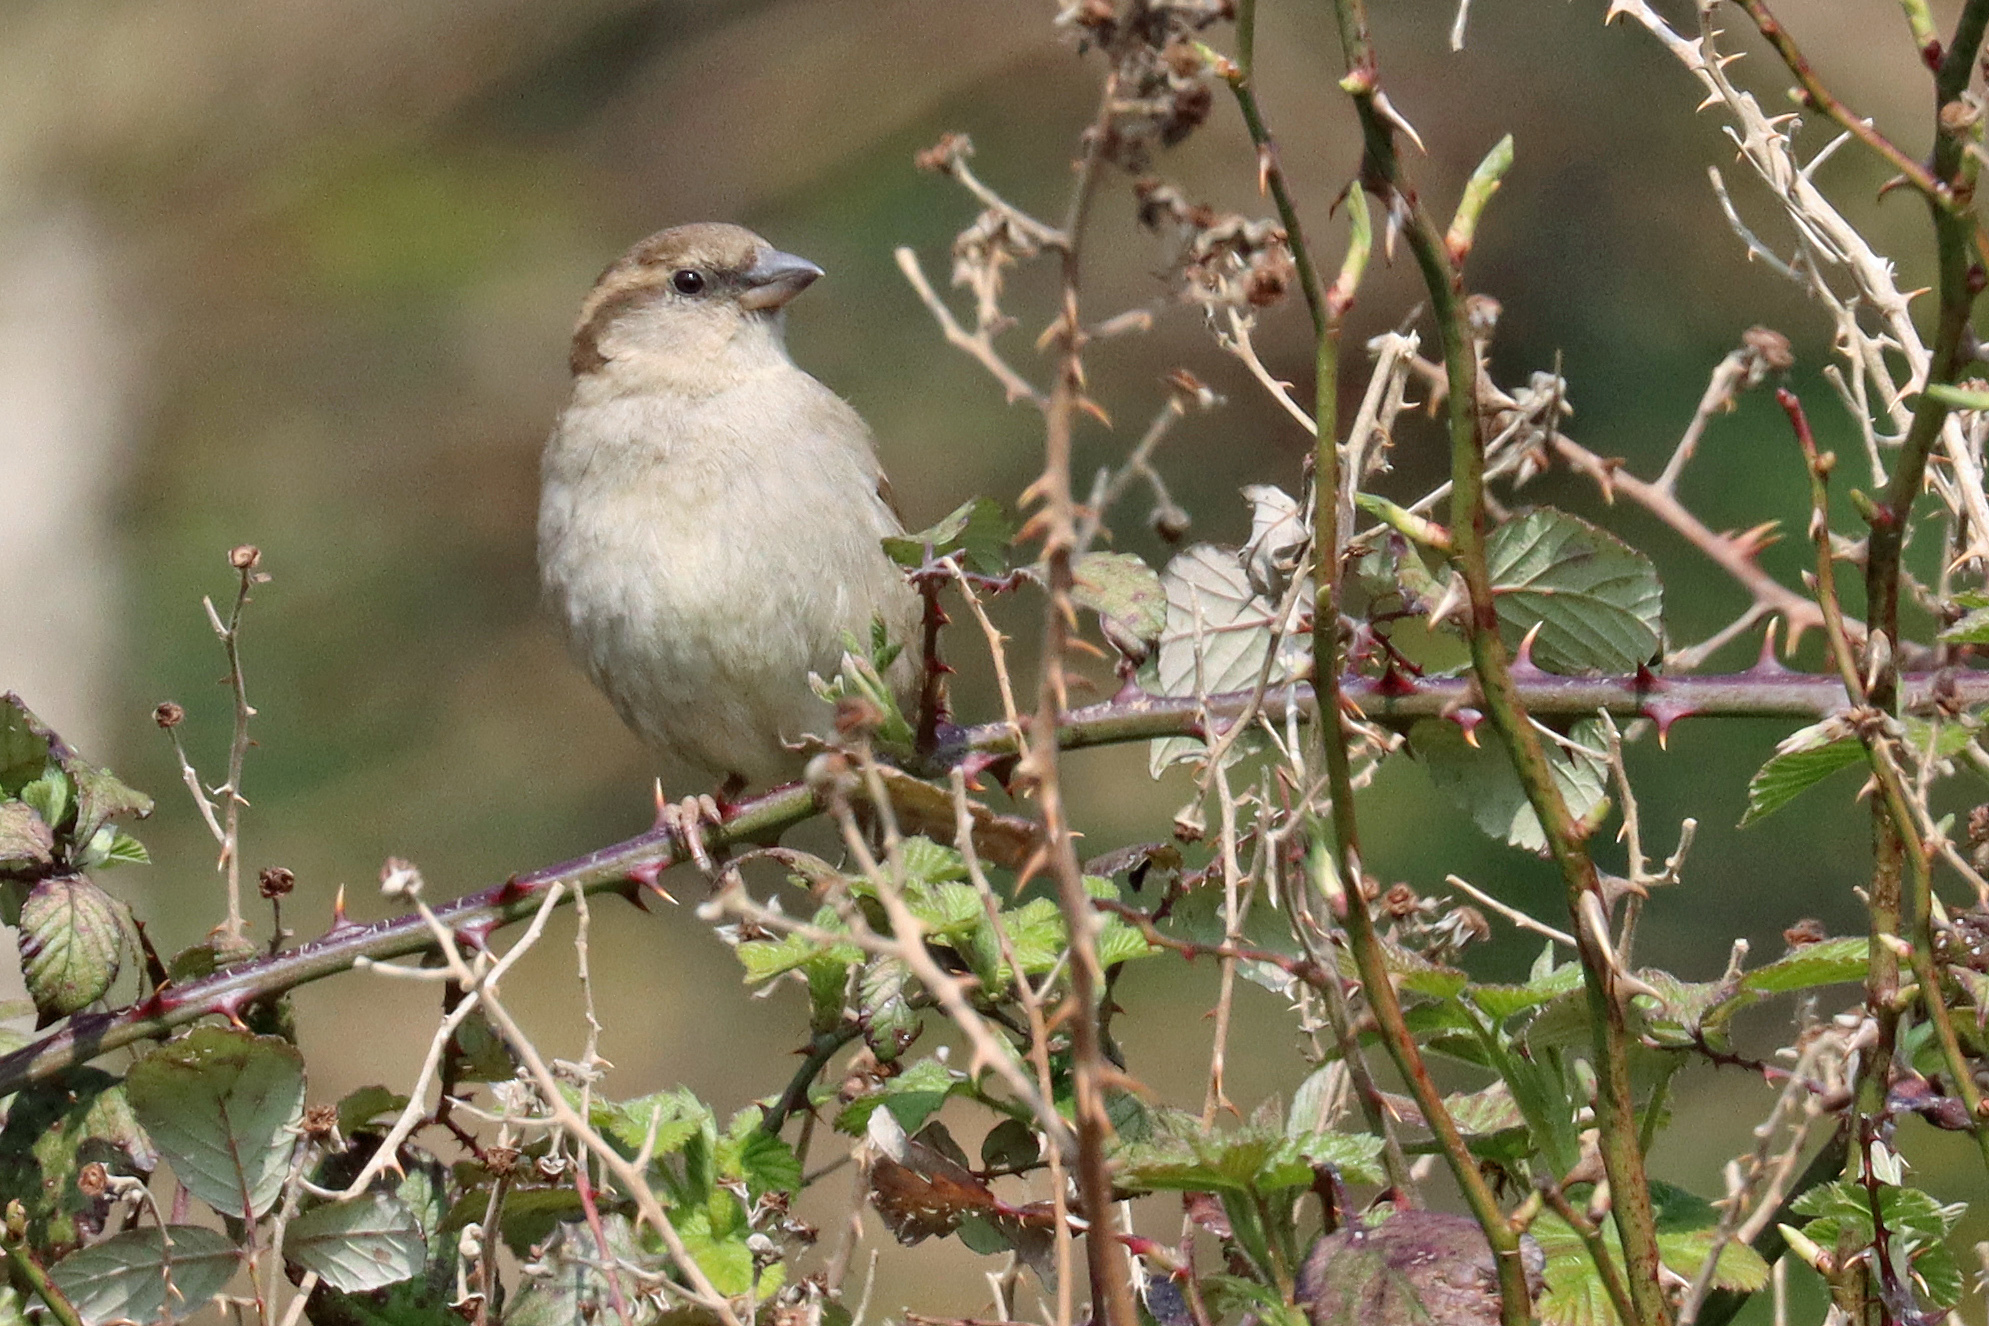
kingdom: Animalia
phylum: Chordata
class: Aves
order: Passeriformes
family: Passeridae
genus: Passer
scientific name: Passer domesticus
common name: House sparrow
